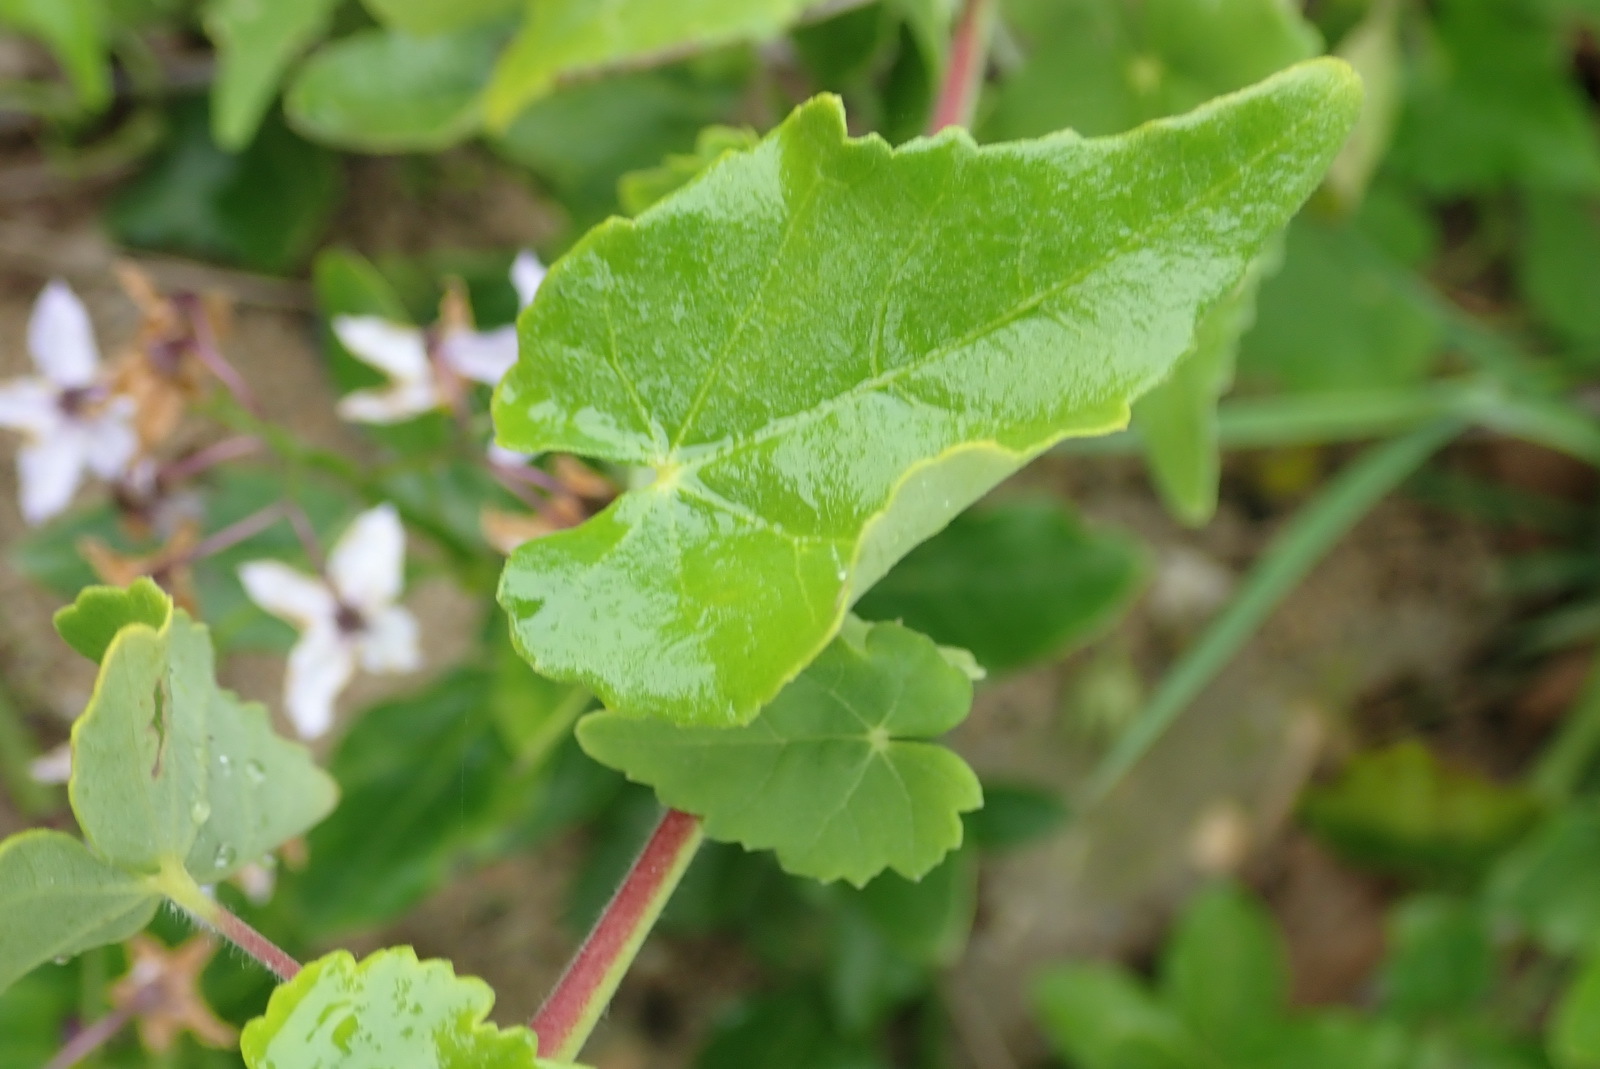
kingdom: Plantae
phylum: Tracheophyta
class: Magnoliopsida
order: Malvales
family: Malvaceae
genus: Abutilon
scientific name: Abutilon sonneratianum
